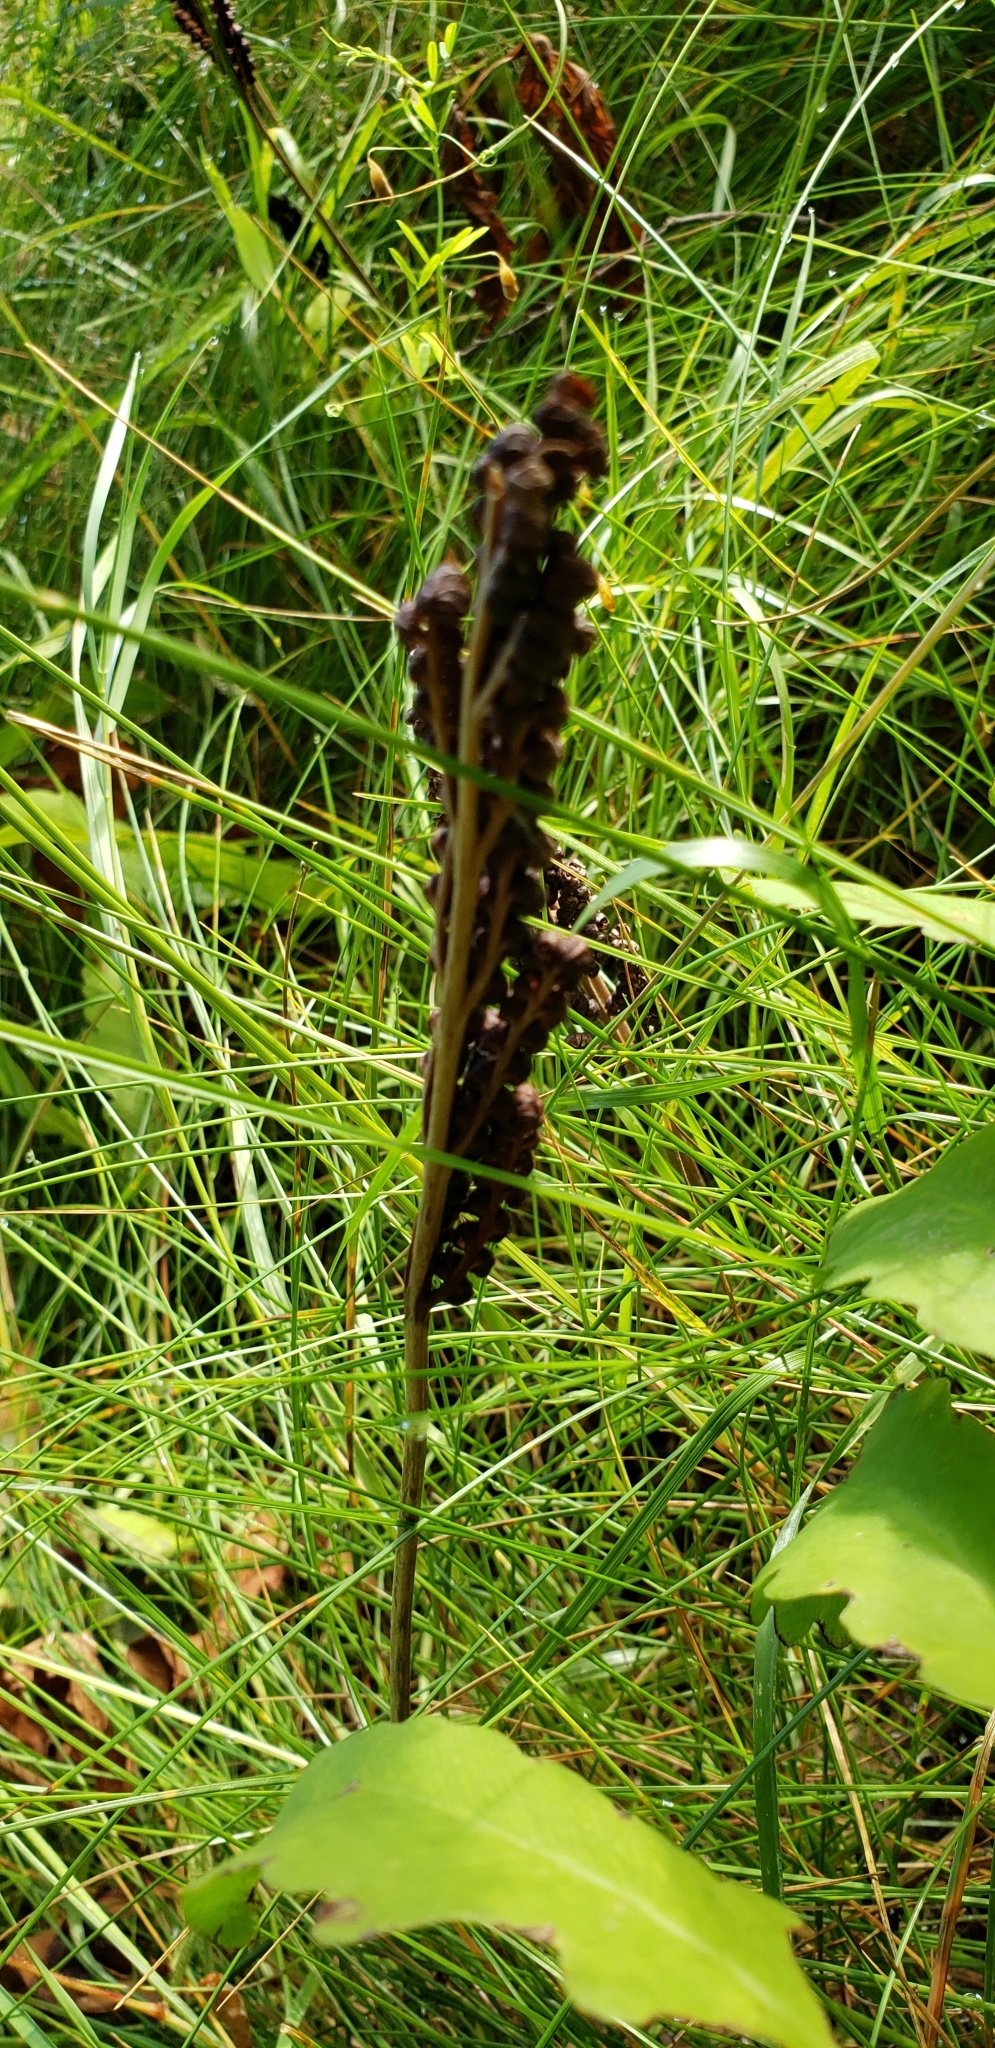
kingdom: Plantae
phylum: Tracheophyta
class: Polypodiopsida
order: Polypodiales
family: Onocleaceae
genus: Onoclea
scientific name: Onoclea sensibilis
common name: Sensitive fern
